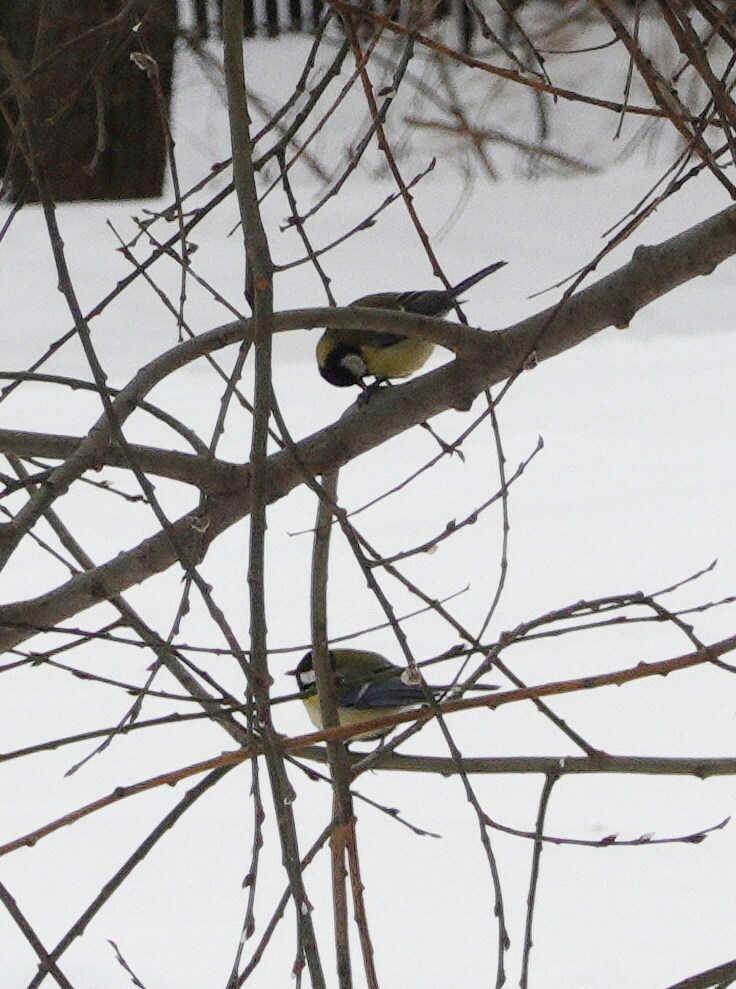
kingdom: Animalia
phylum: Chordata
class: Aves
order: Passeriformes
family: Paridae
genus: Parus
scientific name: Parus major
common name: Great tit
